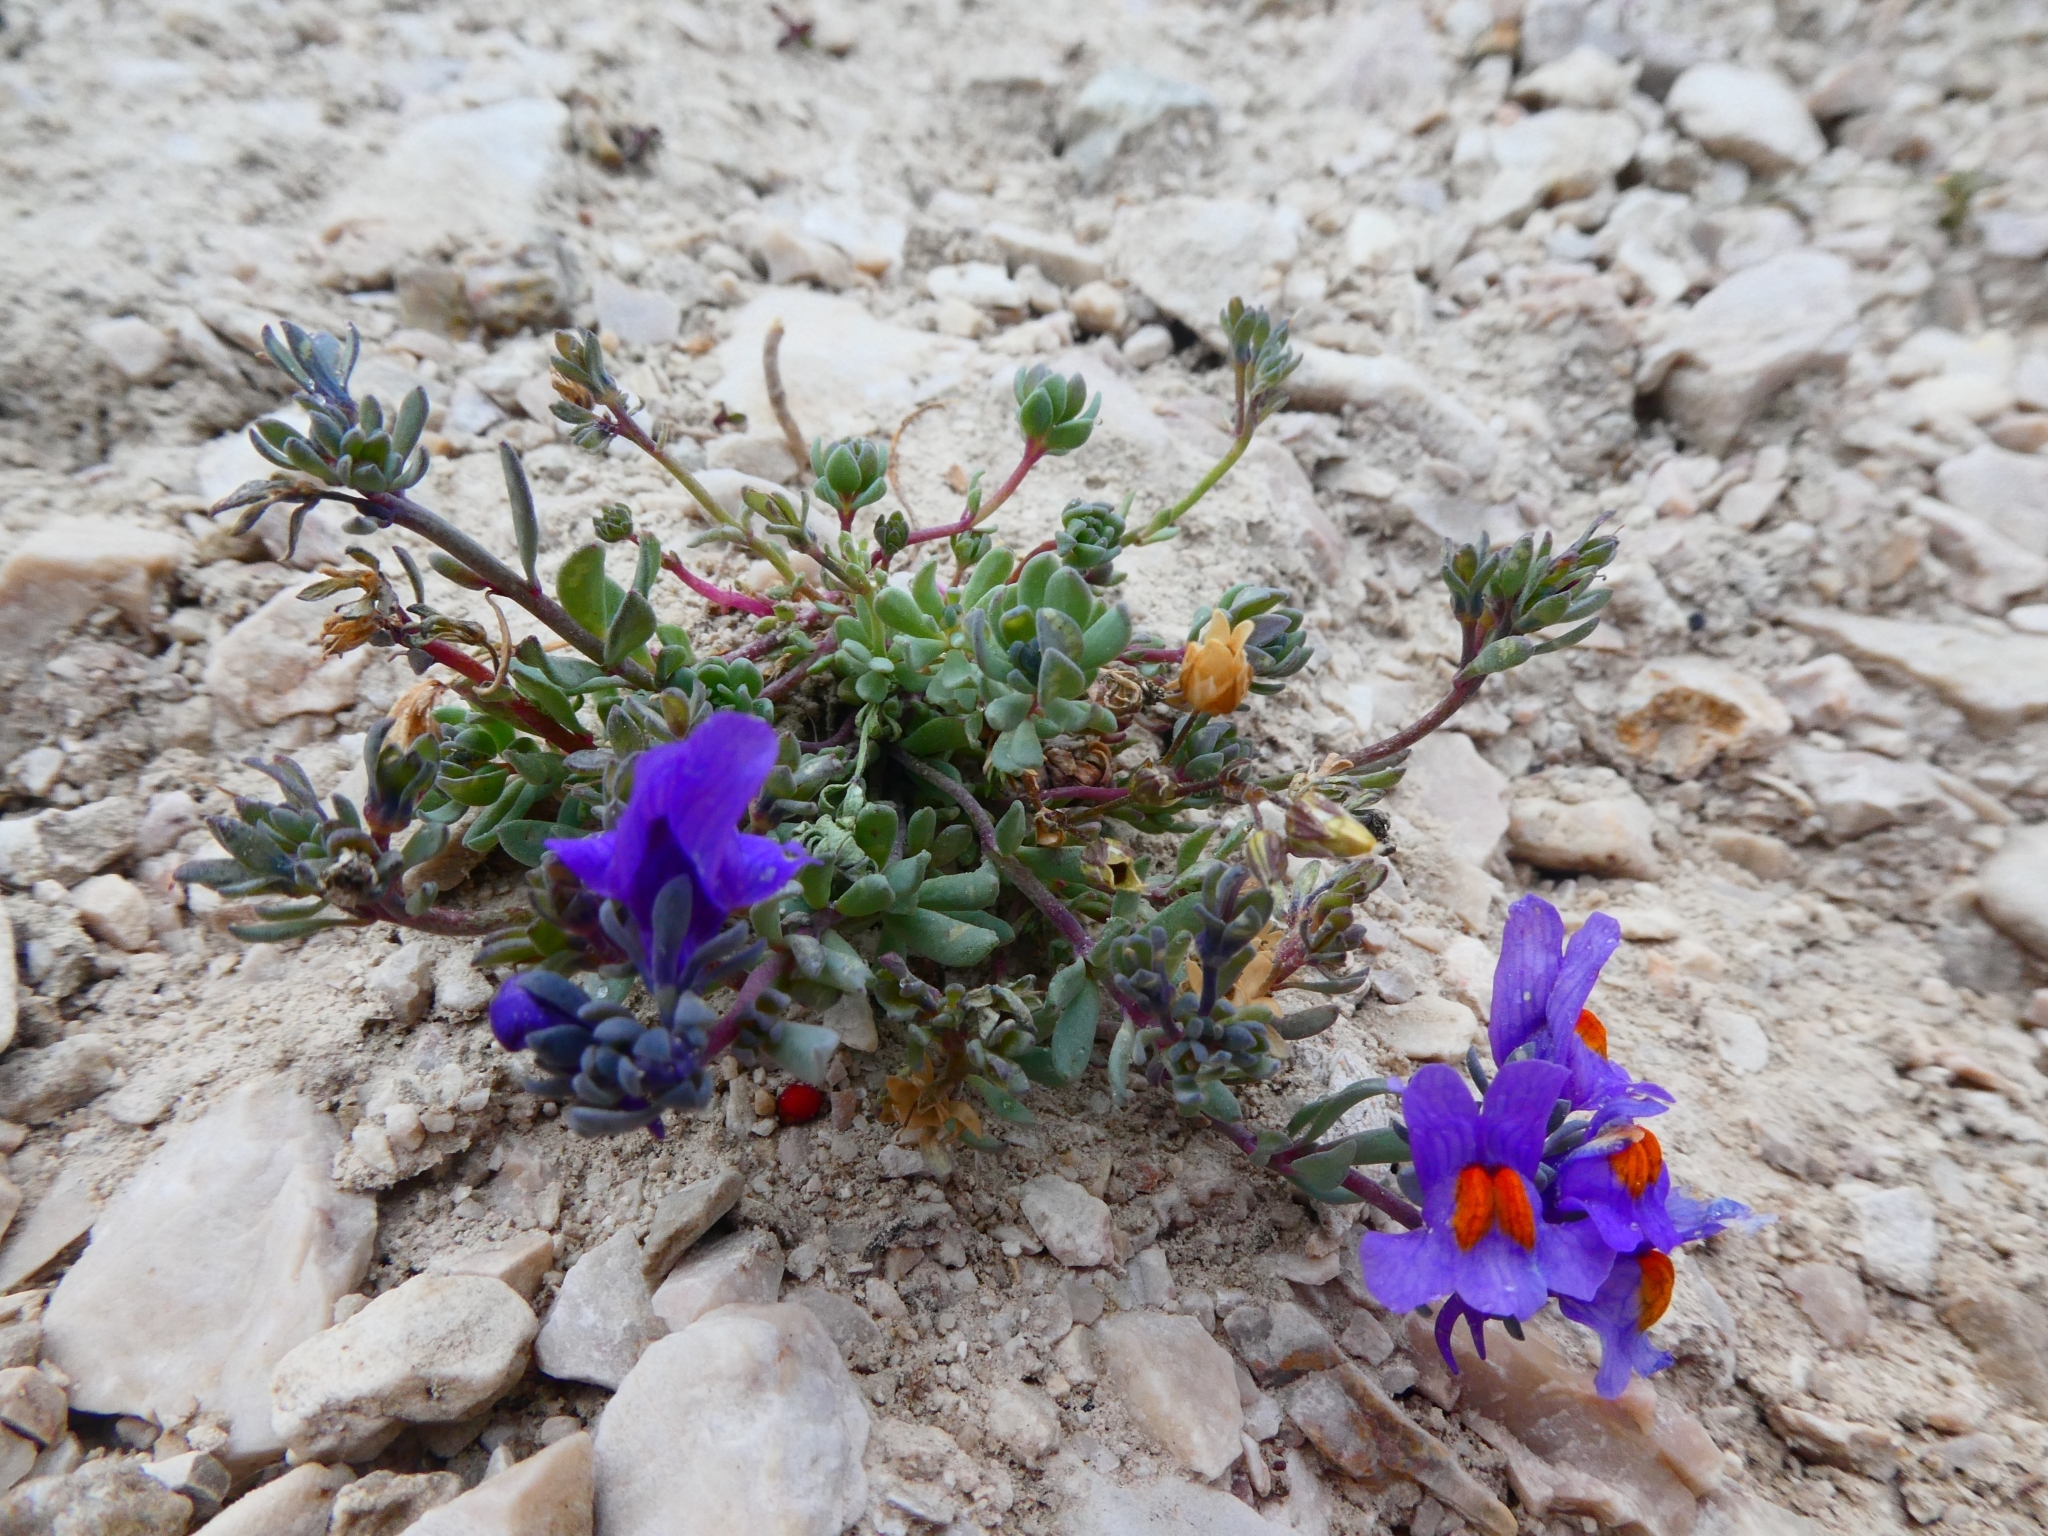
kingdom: Plantae
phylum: Tracheophyta
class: Magnoliopsida
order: Lamiales
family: Plantaginaceae
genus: Linaria
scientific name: Linaria alpina
